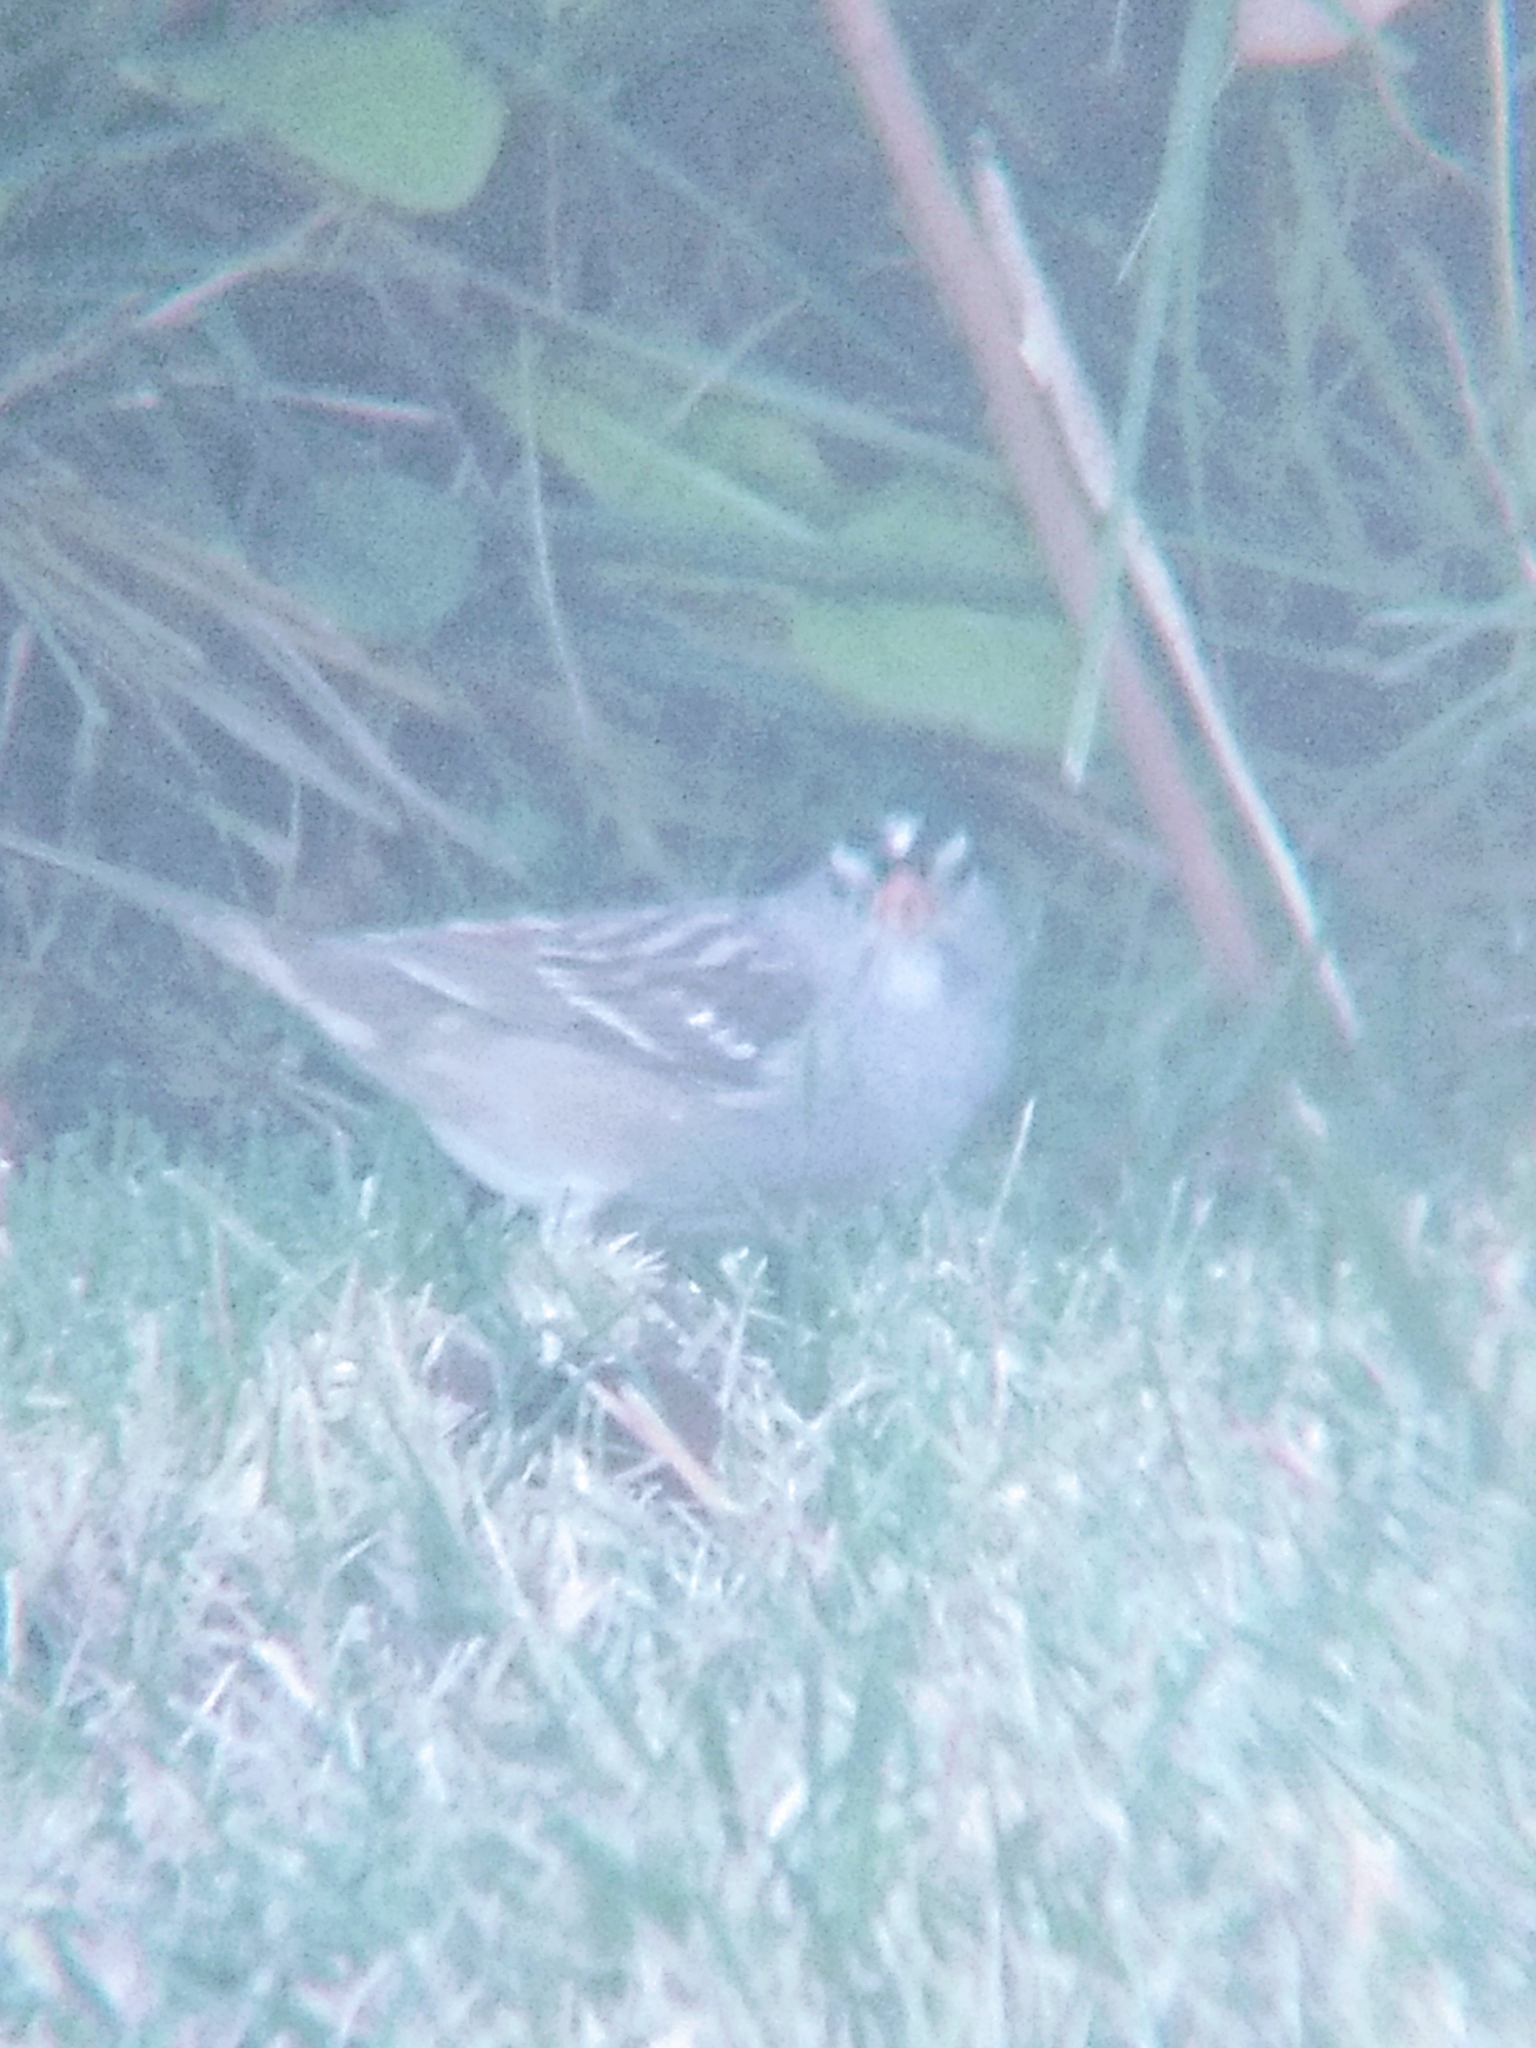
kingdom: Animalia
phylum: Chordata
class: Aves
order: Passeriformes
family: Passerellidae
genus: Zonotrichia
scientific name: Zonotrichia leucophrys
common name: White-crowned sparrow
